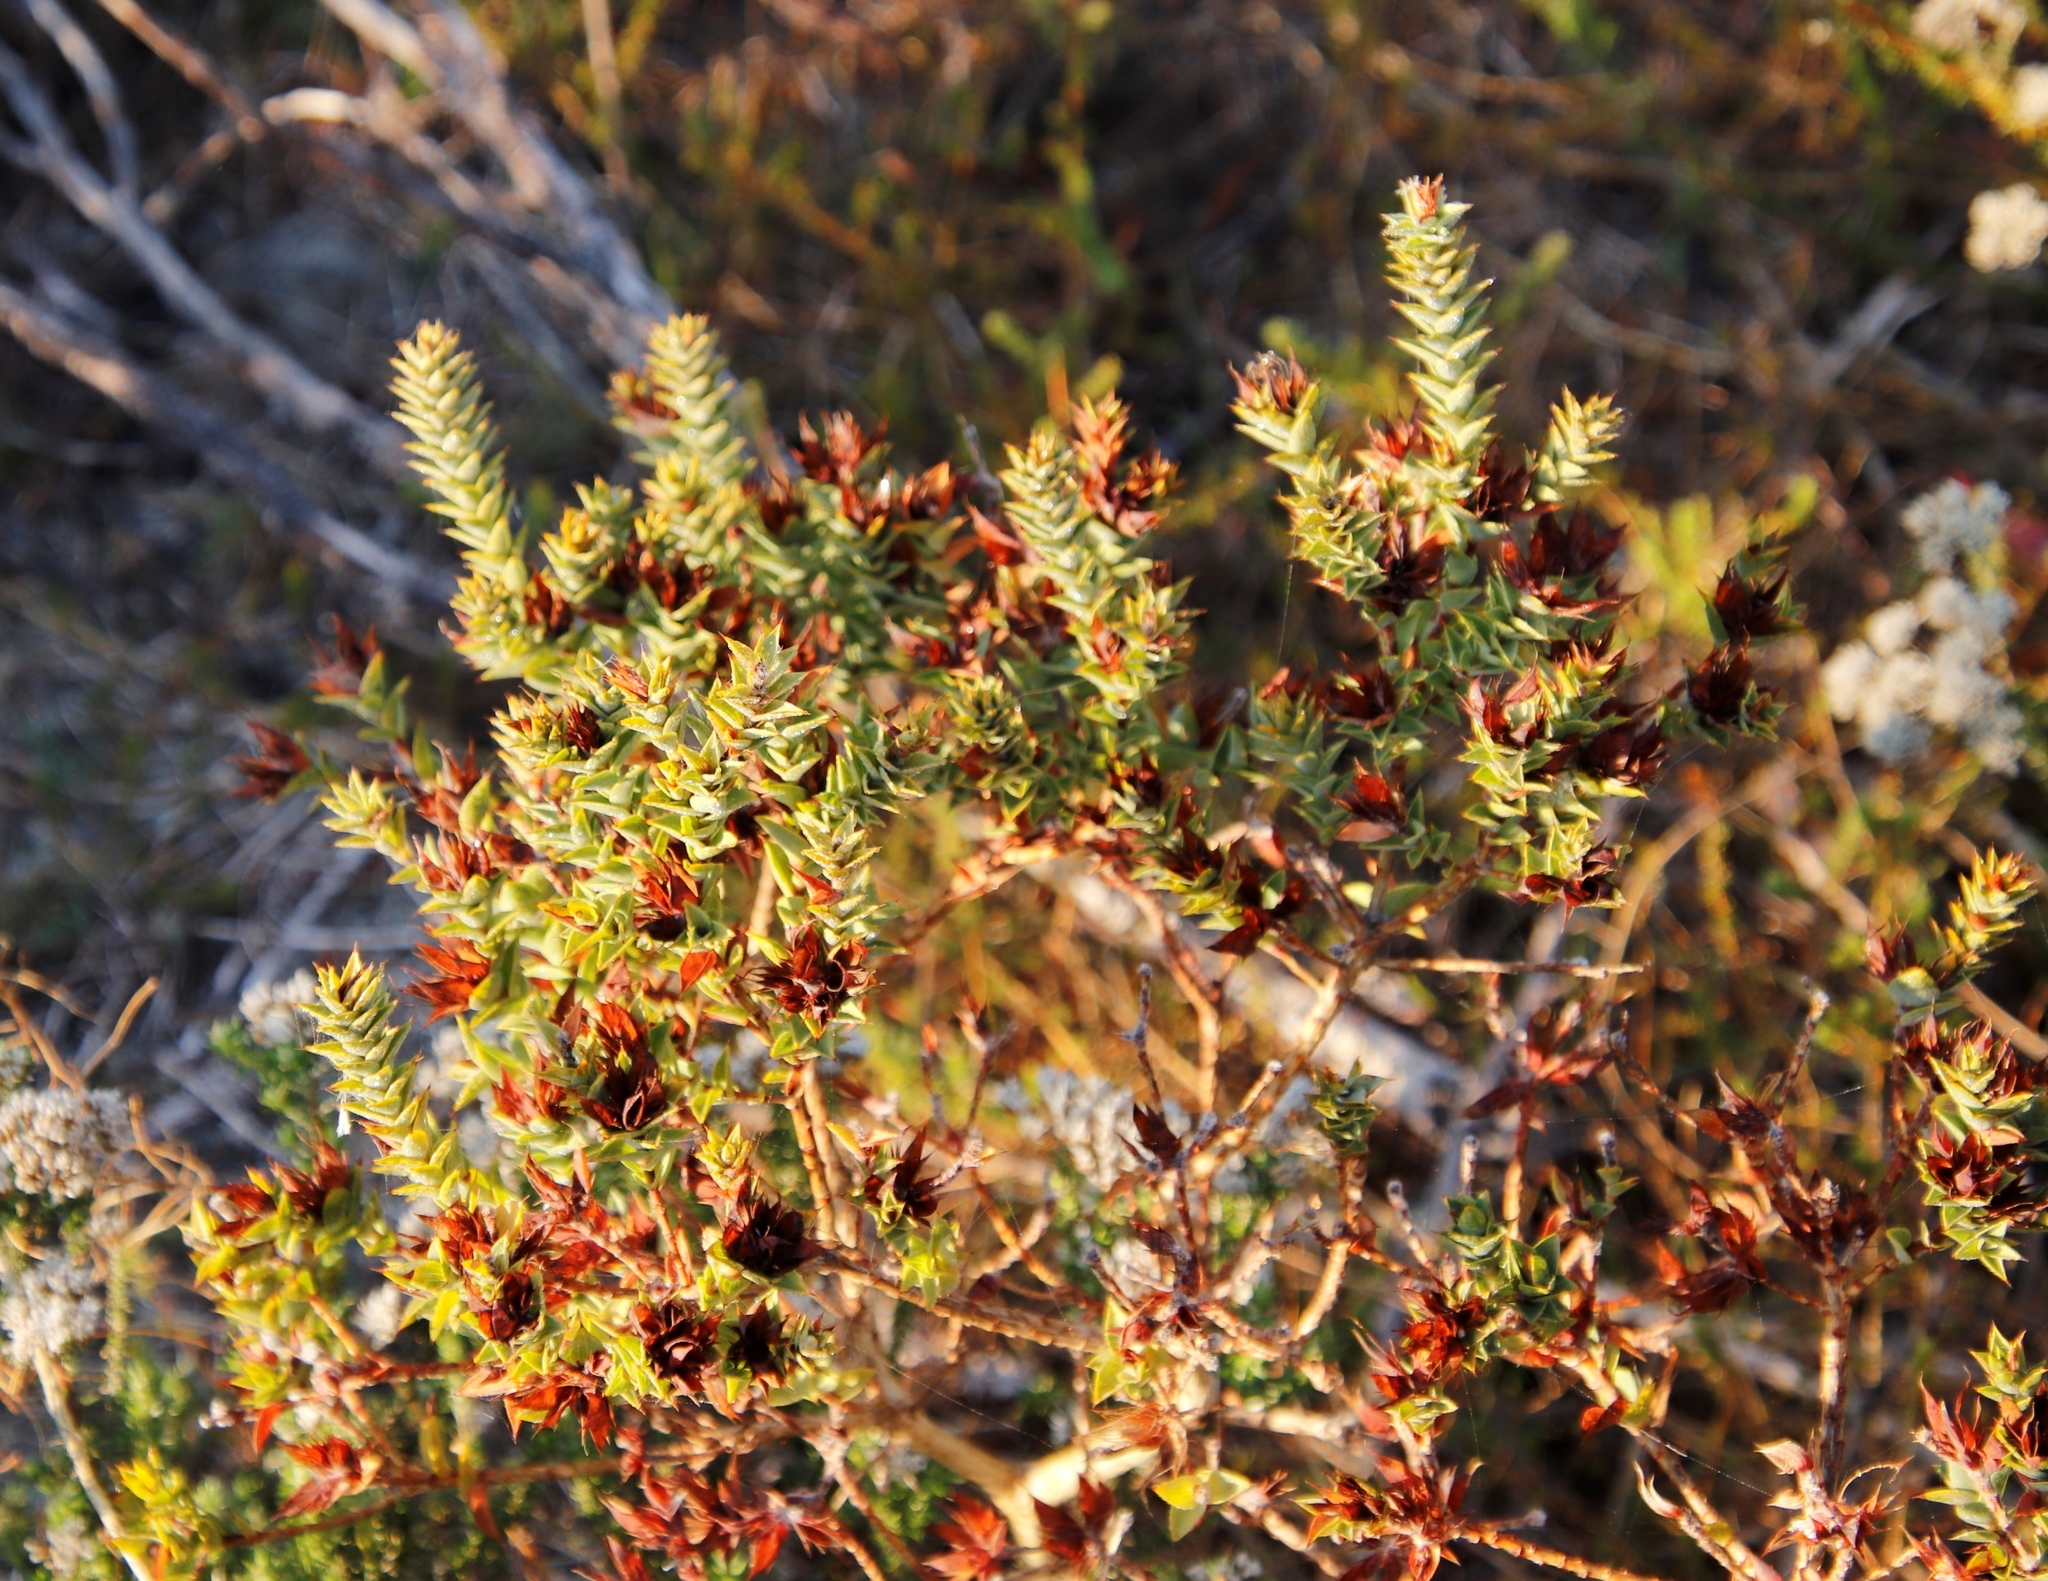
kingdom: Plantae
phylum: Tracheophyta
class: Magnoliopsida
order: Fabales
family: Fabaceae
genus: Aspalathus
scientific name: Aspalathus cordata
